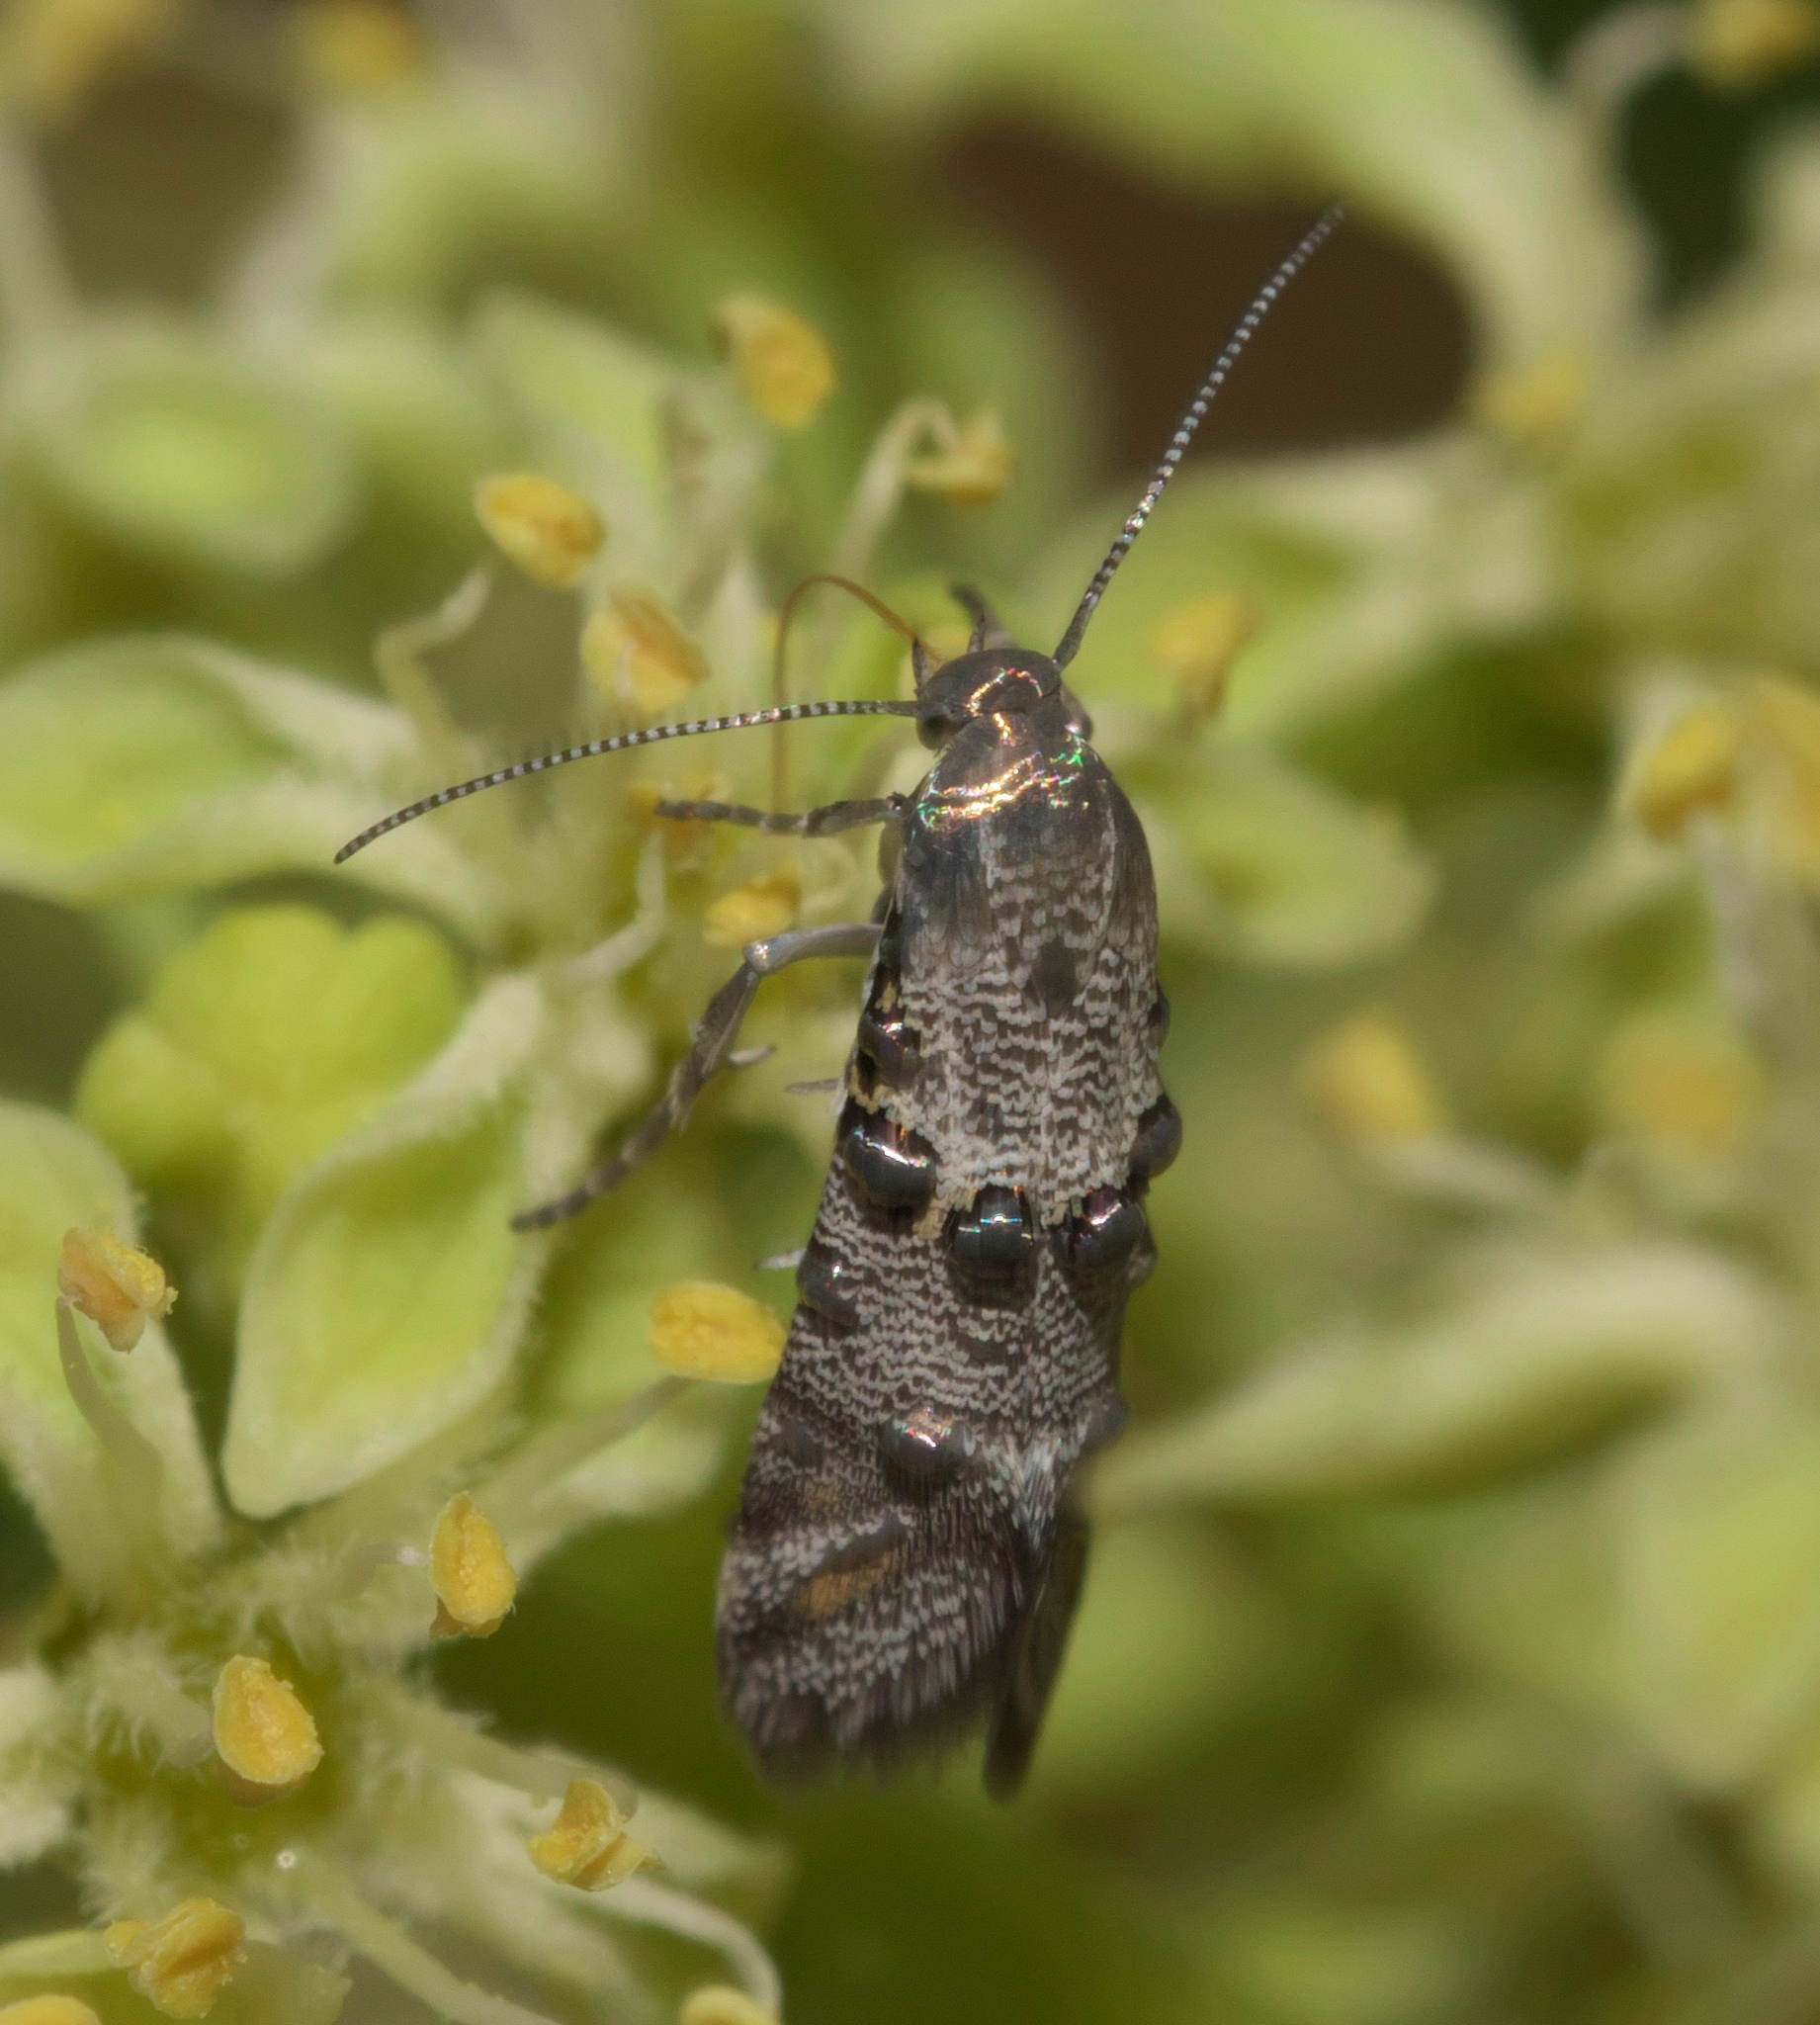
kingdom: Animalia
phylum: Arthropoda
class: Insecta
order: Lepidoptera
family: Heliodinidae
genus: Lithariapteryx
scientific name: Lithariapteryx mirabilinella
